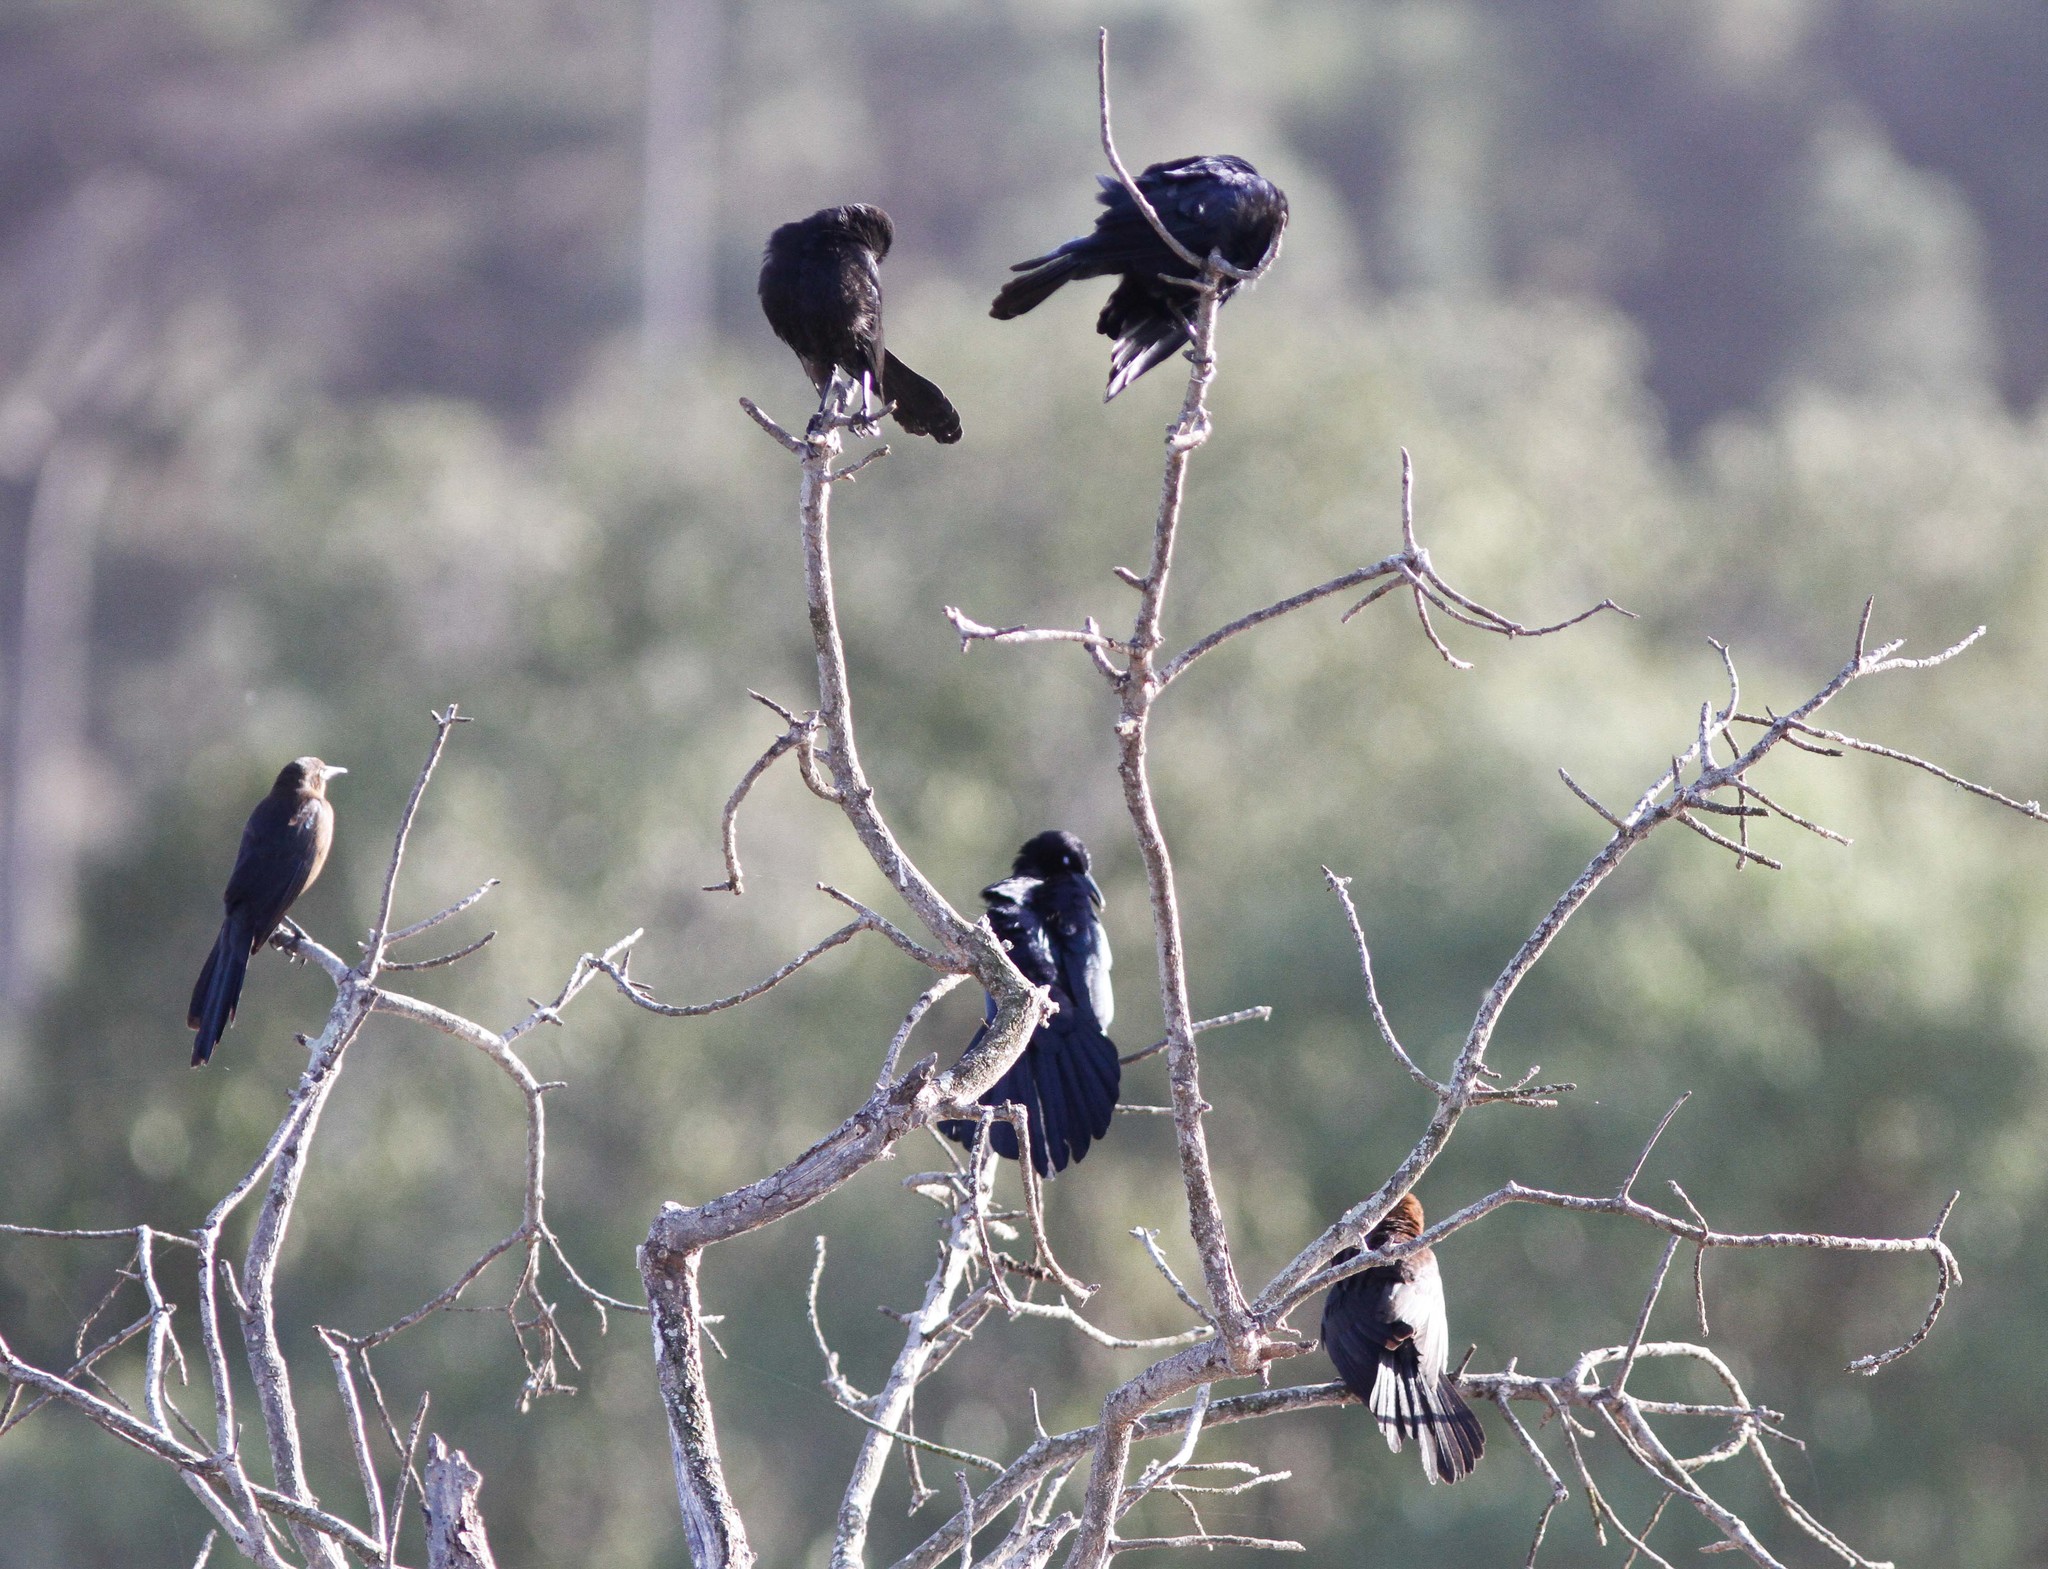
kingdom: Animalia
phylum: Chordata
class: Aves
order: Passeriformes
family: Icteridae
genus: Quiscalus
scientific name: Quiscalus mexicanus
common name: Great-tailed grackle
